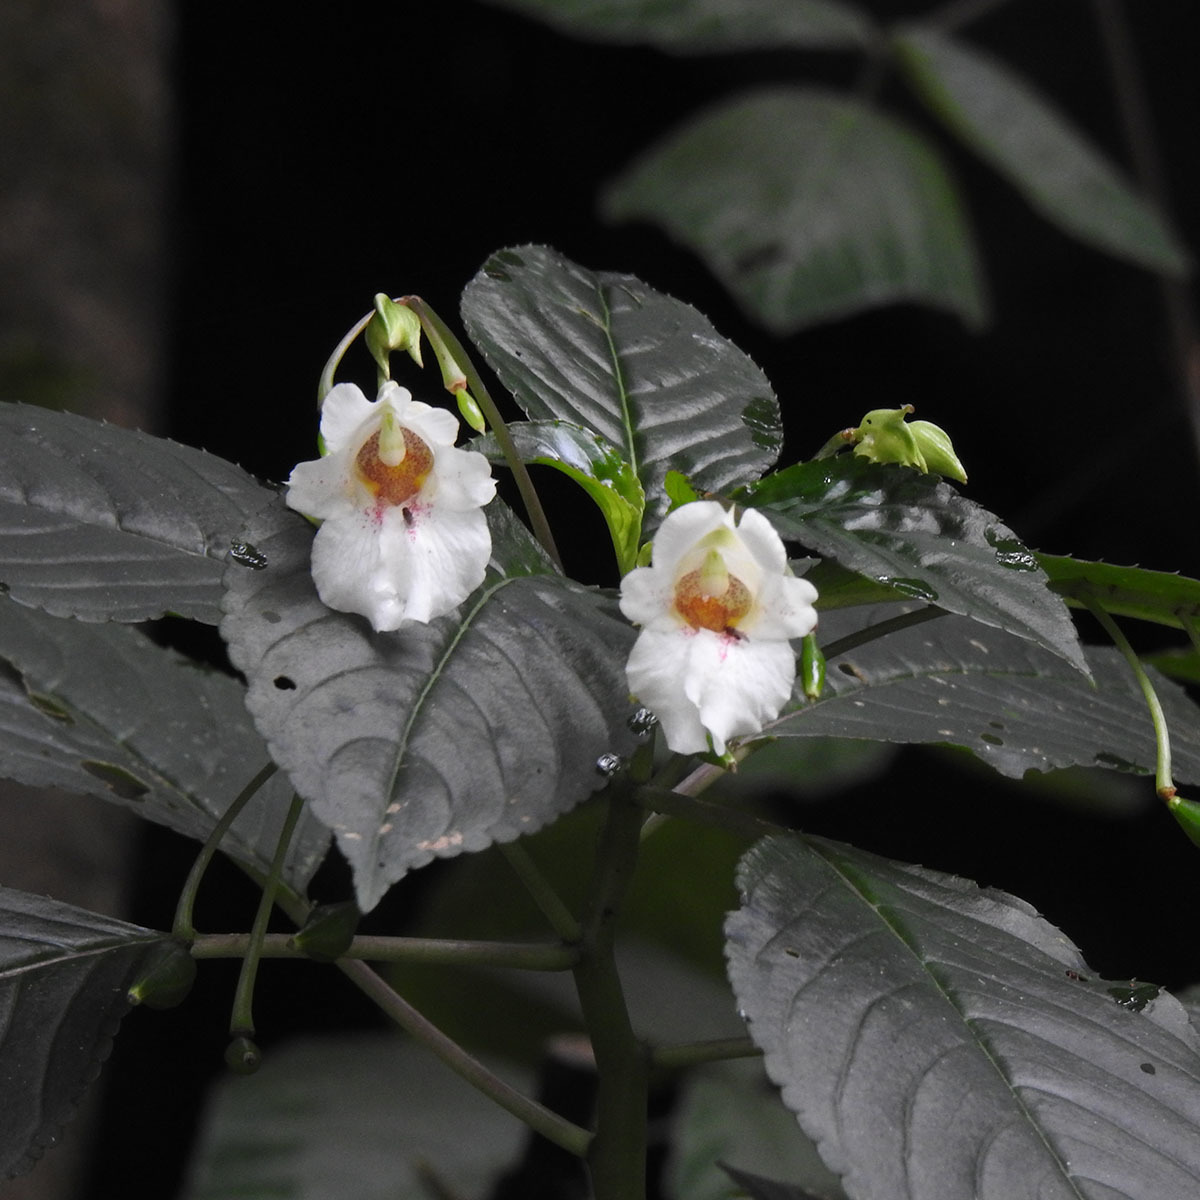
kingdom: Plantae
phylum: Tracheophyta
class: Magnoliopsida
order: Ericales
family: Balsaminaceae
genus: Impatiens
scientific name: Impatiens campanulata
